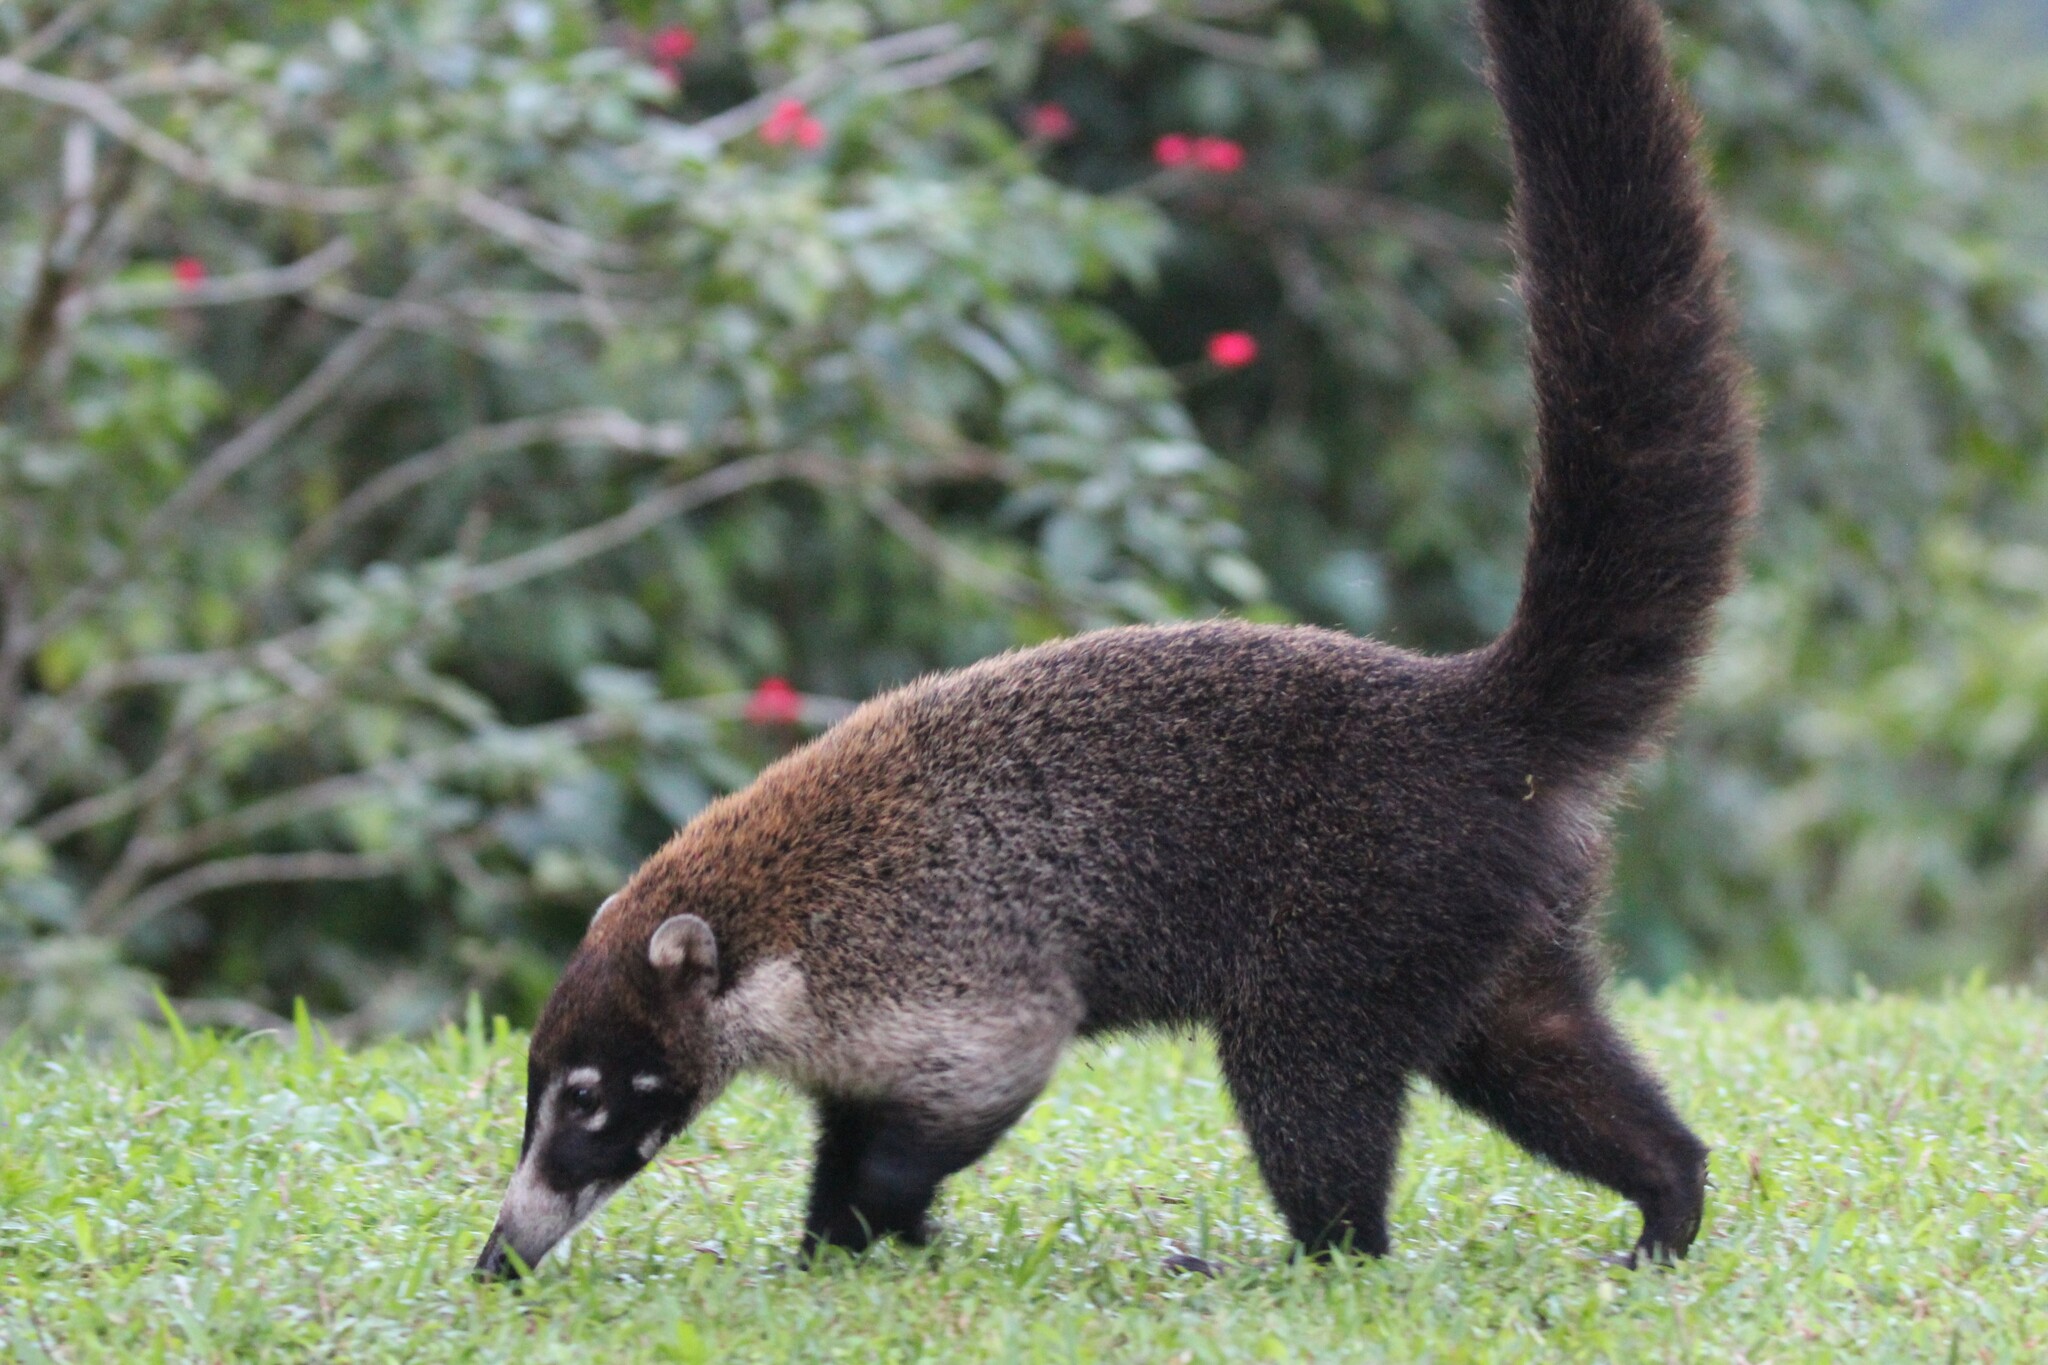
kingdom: Animalia
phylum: Chordata
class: Mammalia
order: Carnivora
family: Procyonidae
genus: Nasua
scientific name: Nasua narica
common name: White-nosed coati
